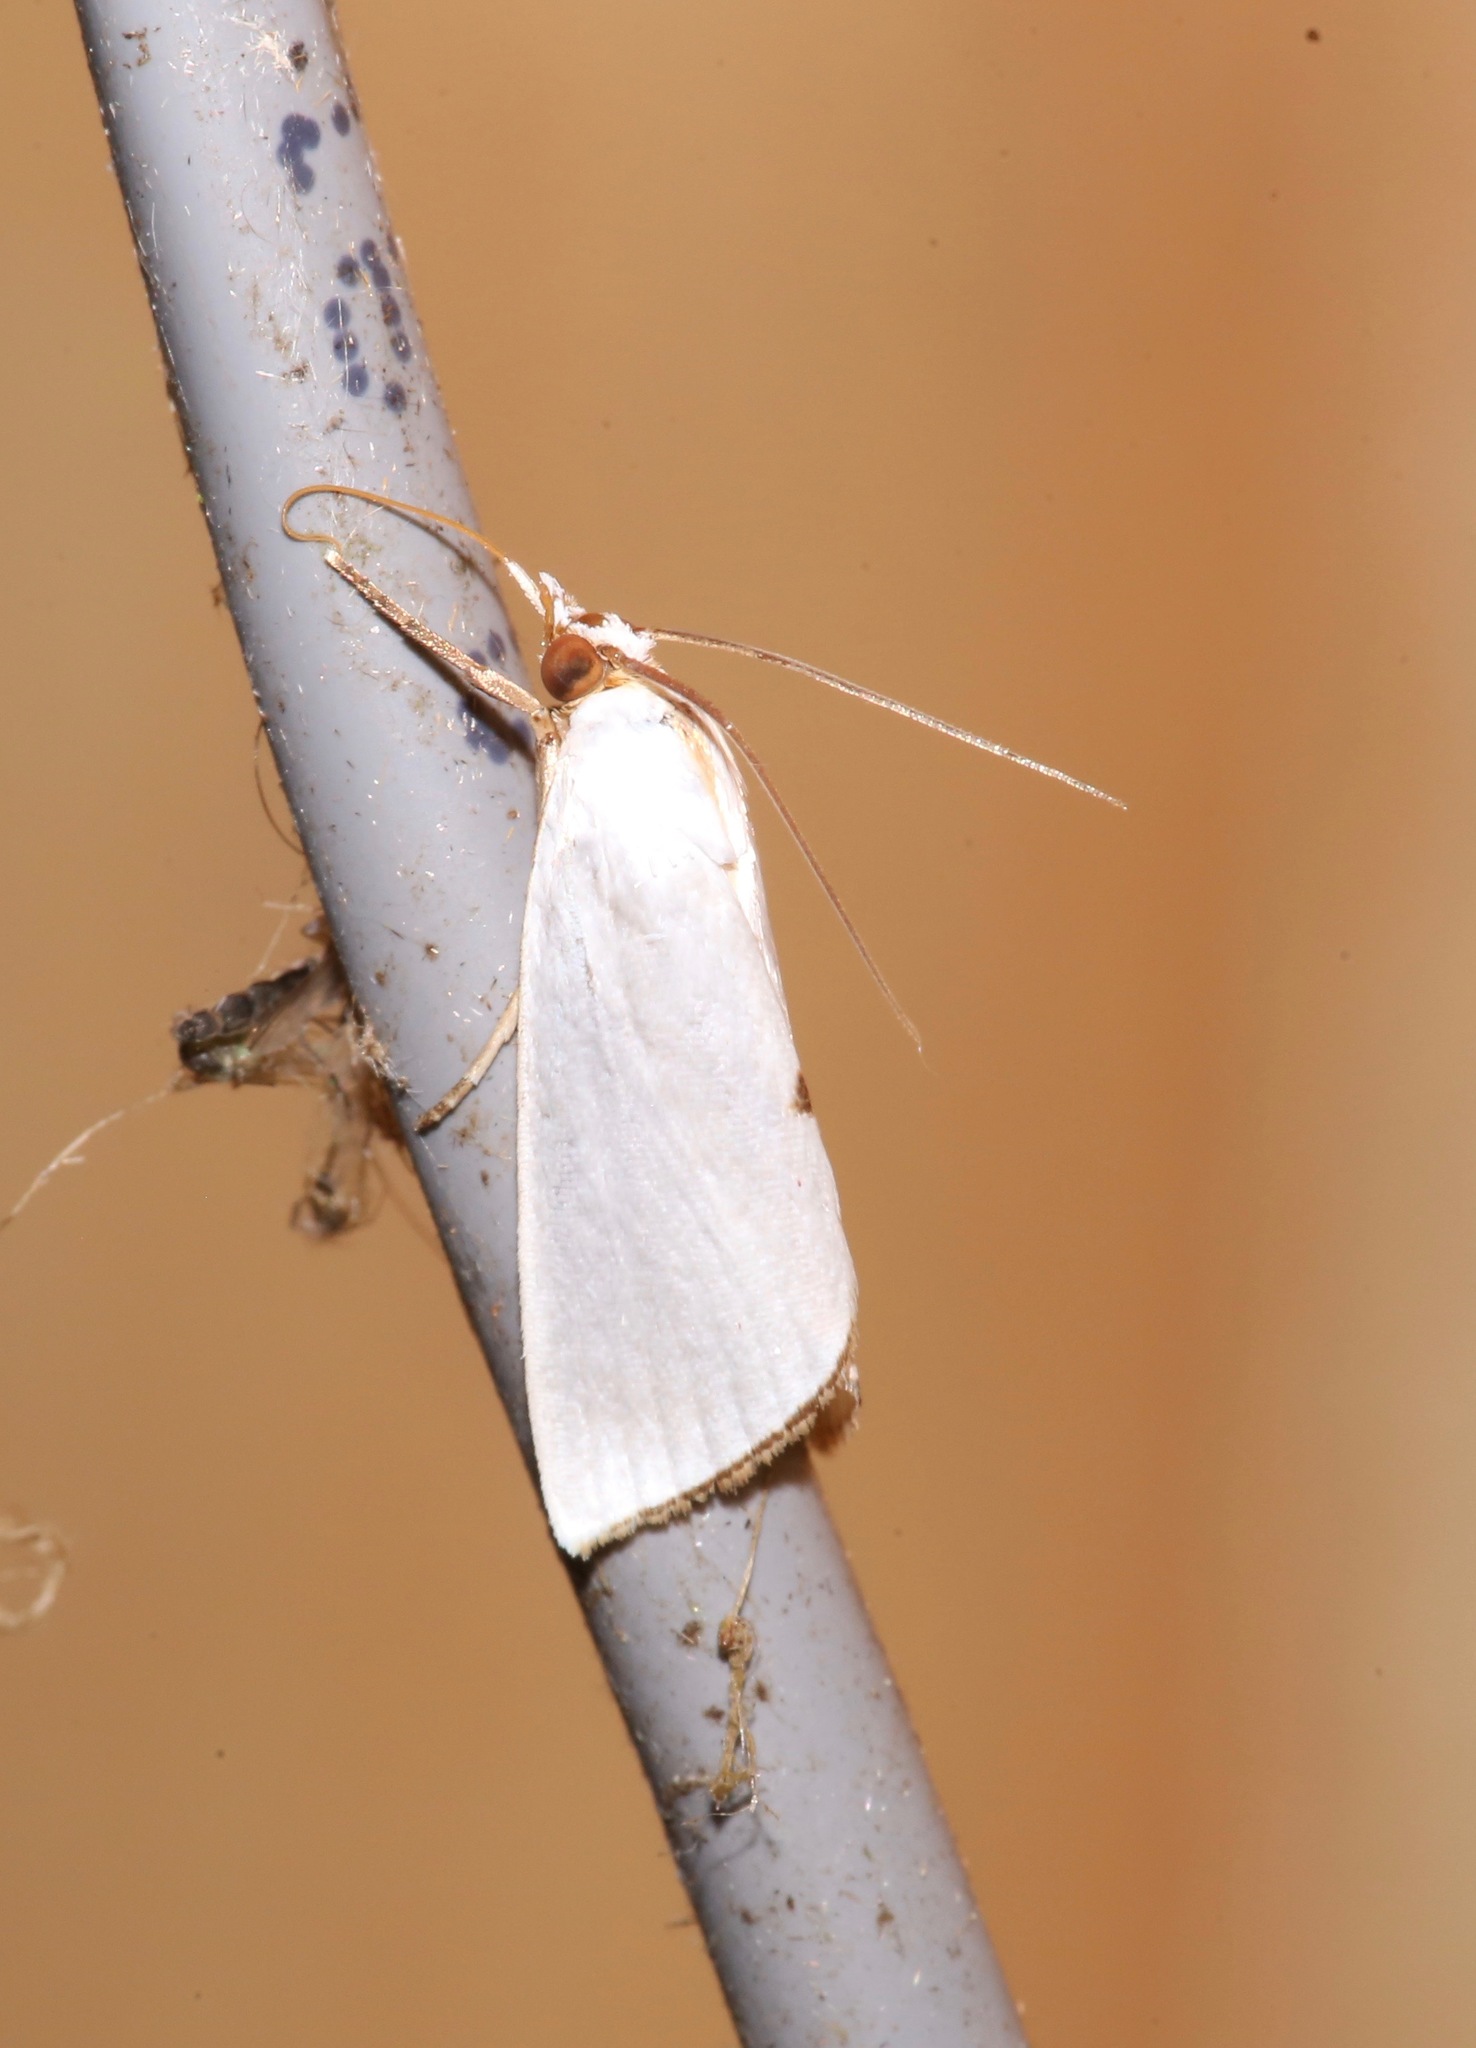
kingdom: Animalia
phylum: Arthropoda
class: Insecta
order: Lepidoptera
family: Crambidae
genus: Argyria
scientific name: Argyria nivalis
